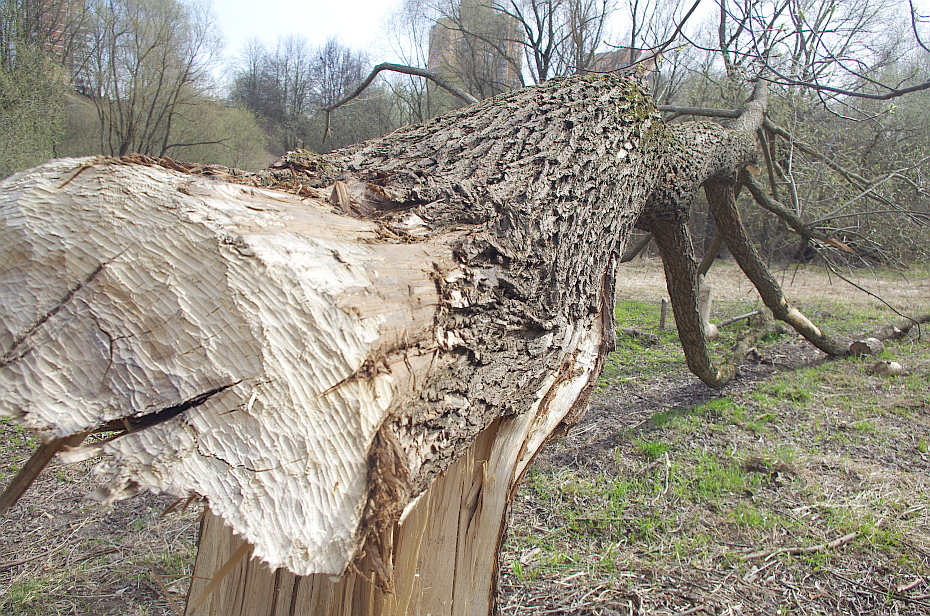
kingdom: Animalia
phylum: Chordata
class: Mammalia
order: Rodentia
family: Castoridae
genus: Castor
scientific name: Castor fiber
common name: Eurasian beaver
